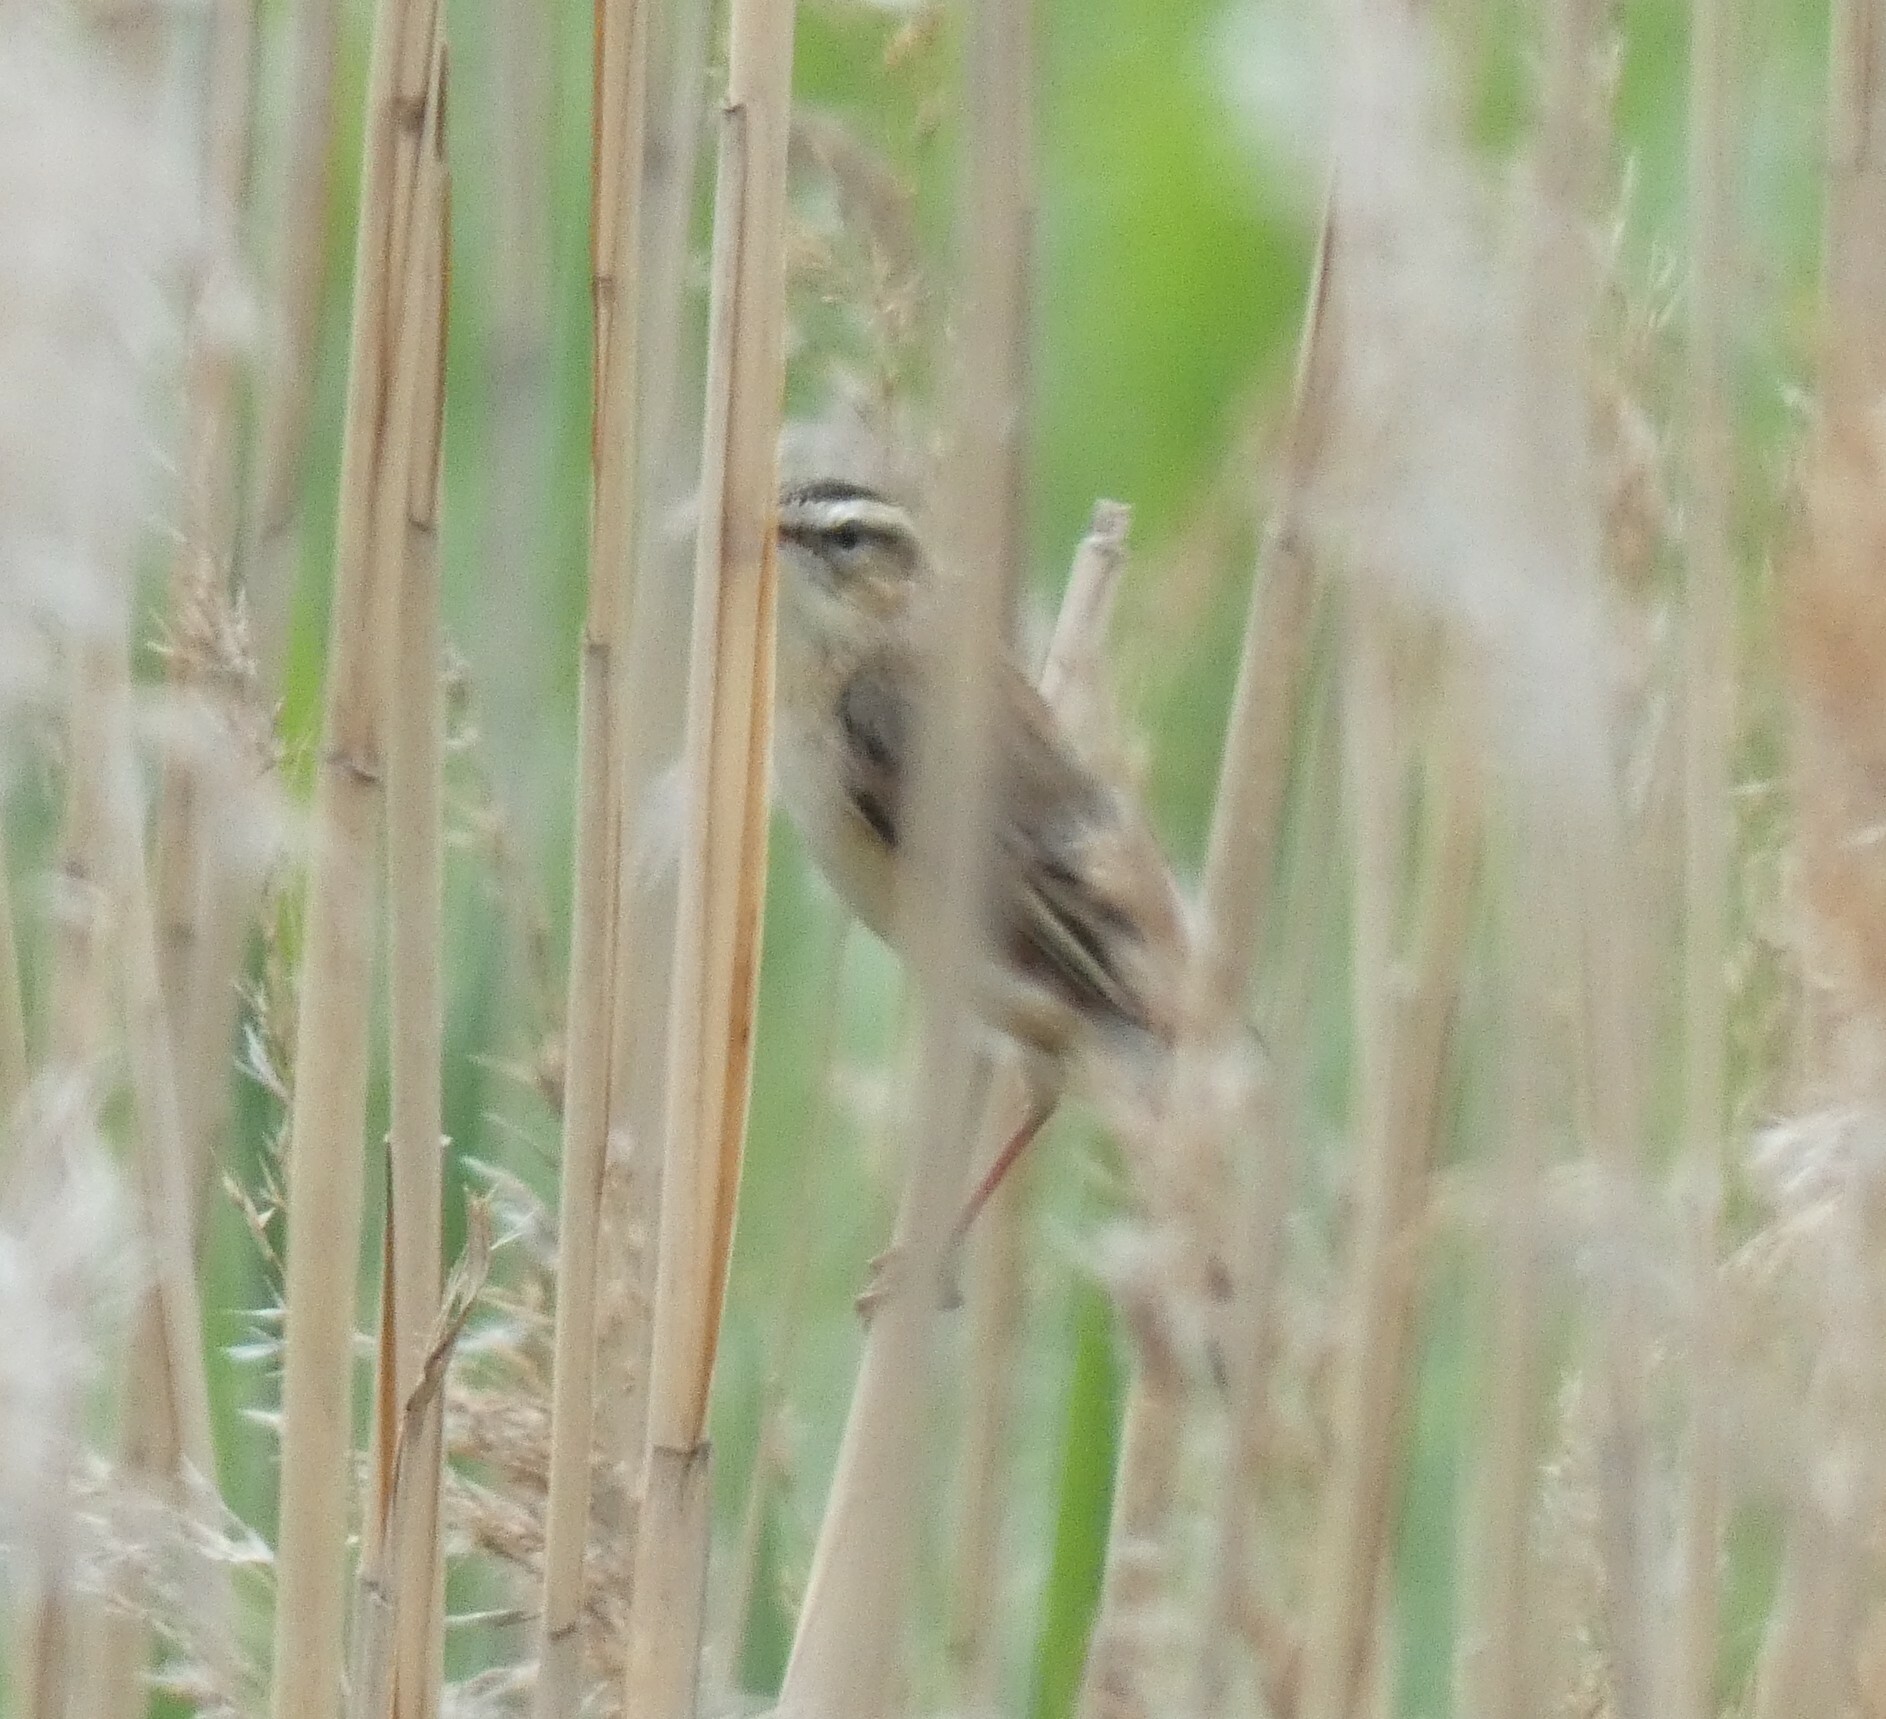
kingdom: Animalia
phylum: Chordata
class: Aves
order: Passeriformes
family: Acrocephalidae
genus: Acrocephalus
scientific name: Acrocephalus schoenobaenus
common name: Sedge warbler
